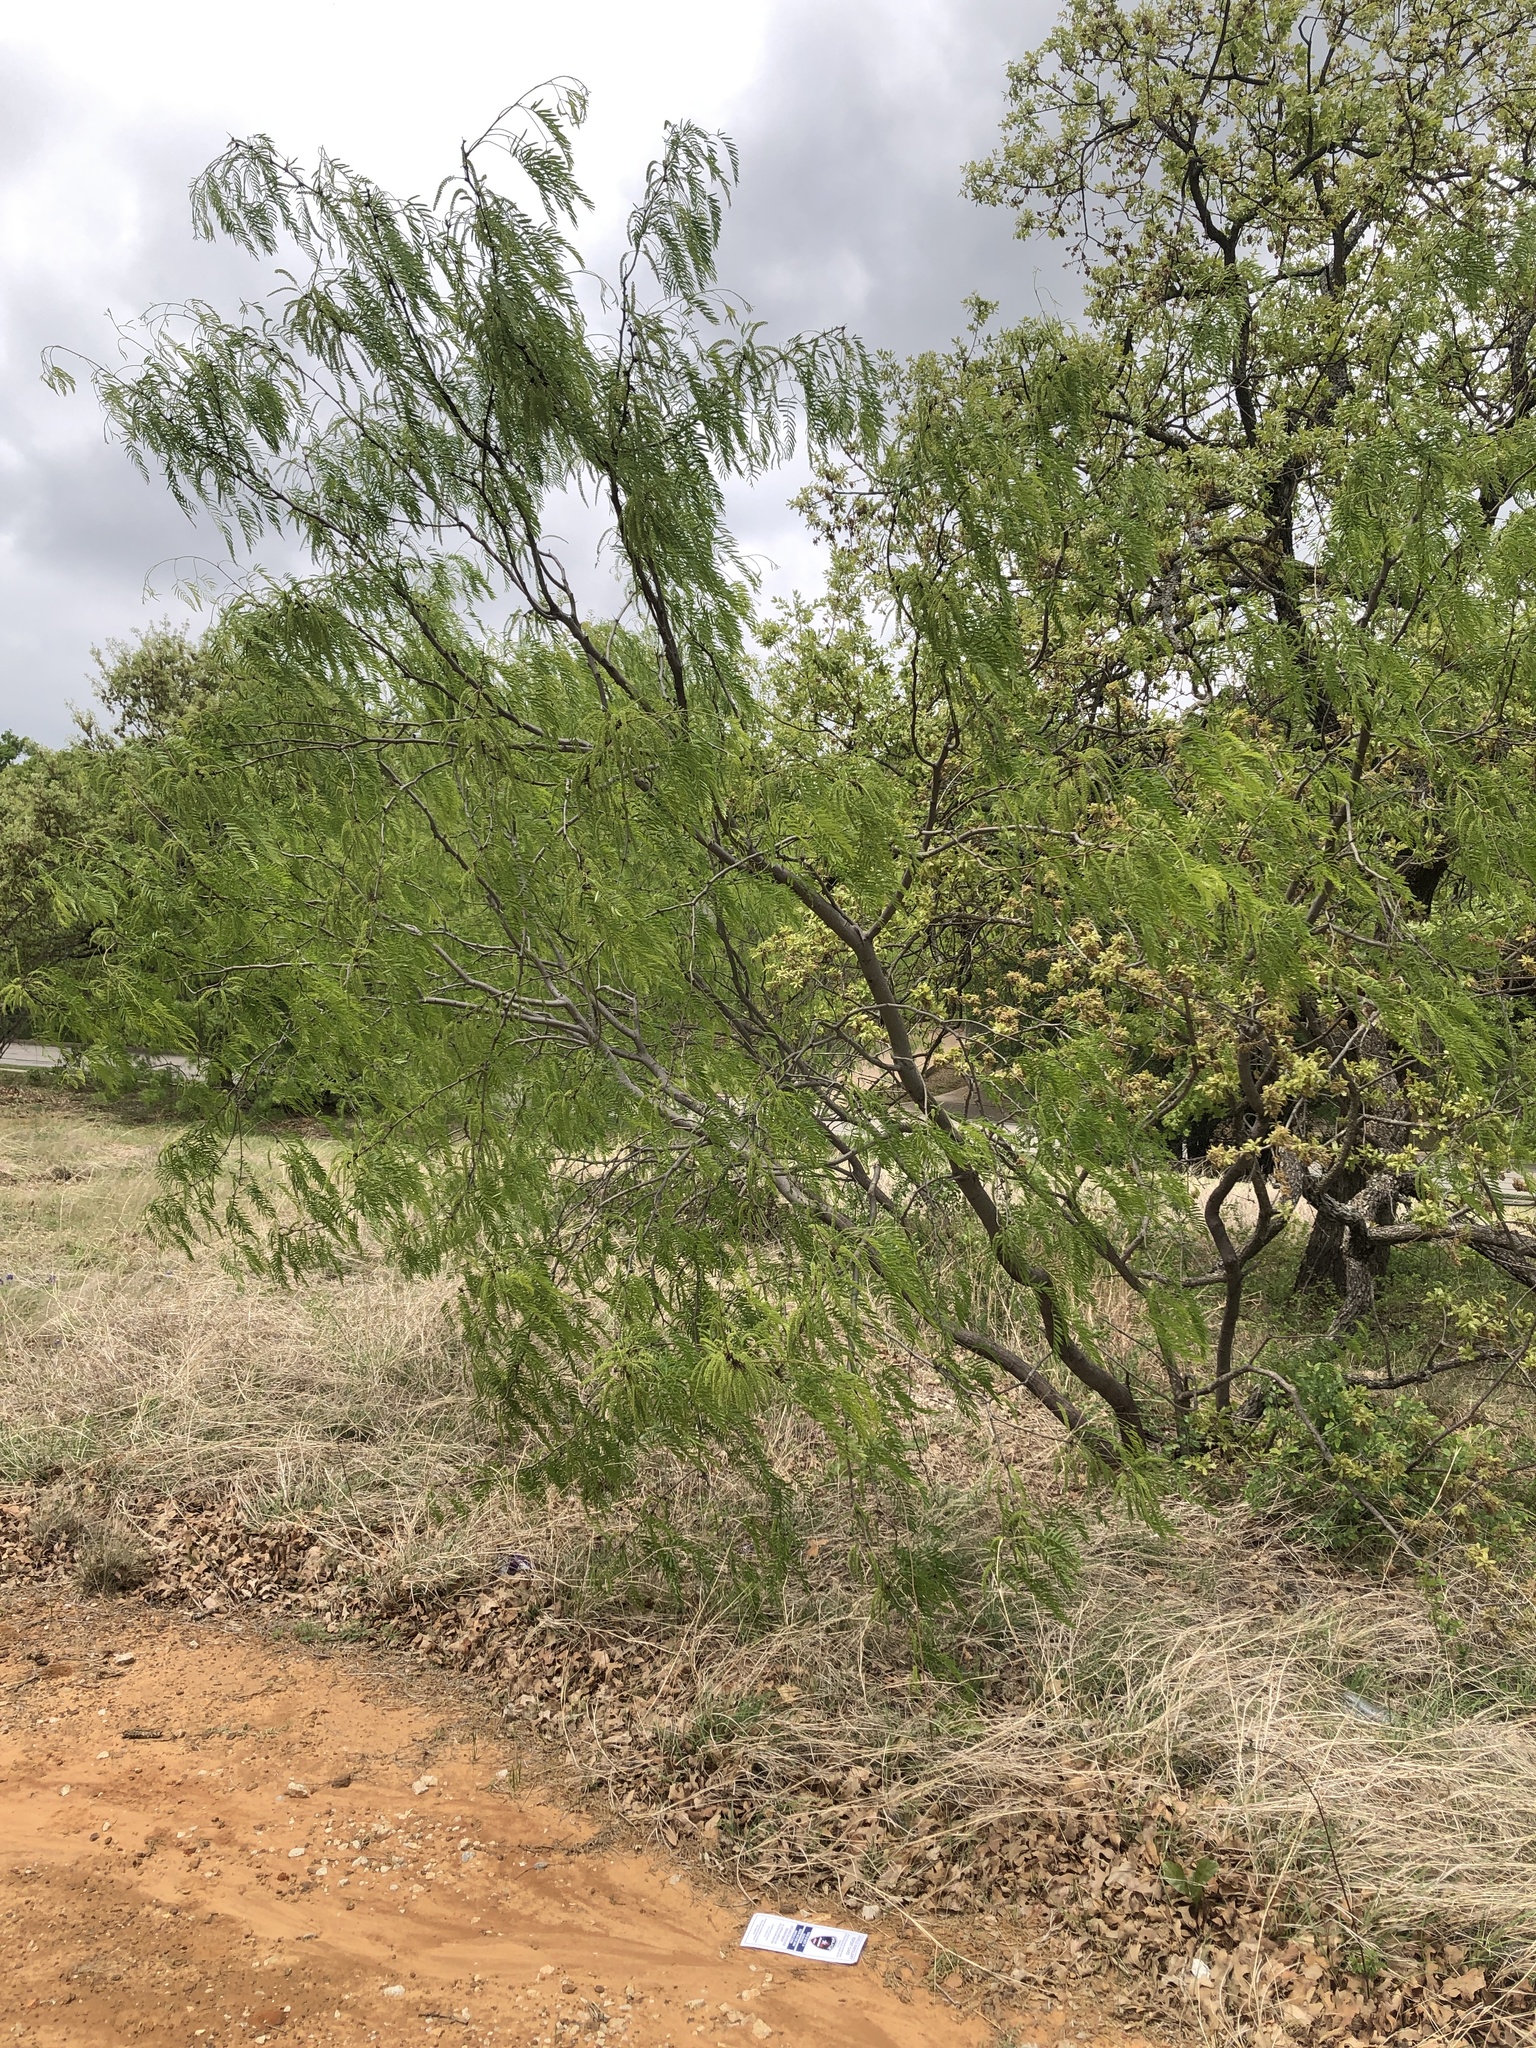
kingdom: Plantae
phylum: Tracheophyta
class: Magnoliopsida
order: Fabales
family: Fabaceae
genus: Prosopis
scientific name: Prosopis glandulosa
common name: Honey mesquite
